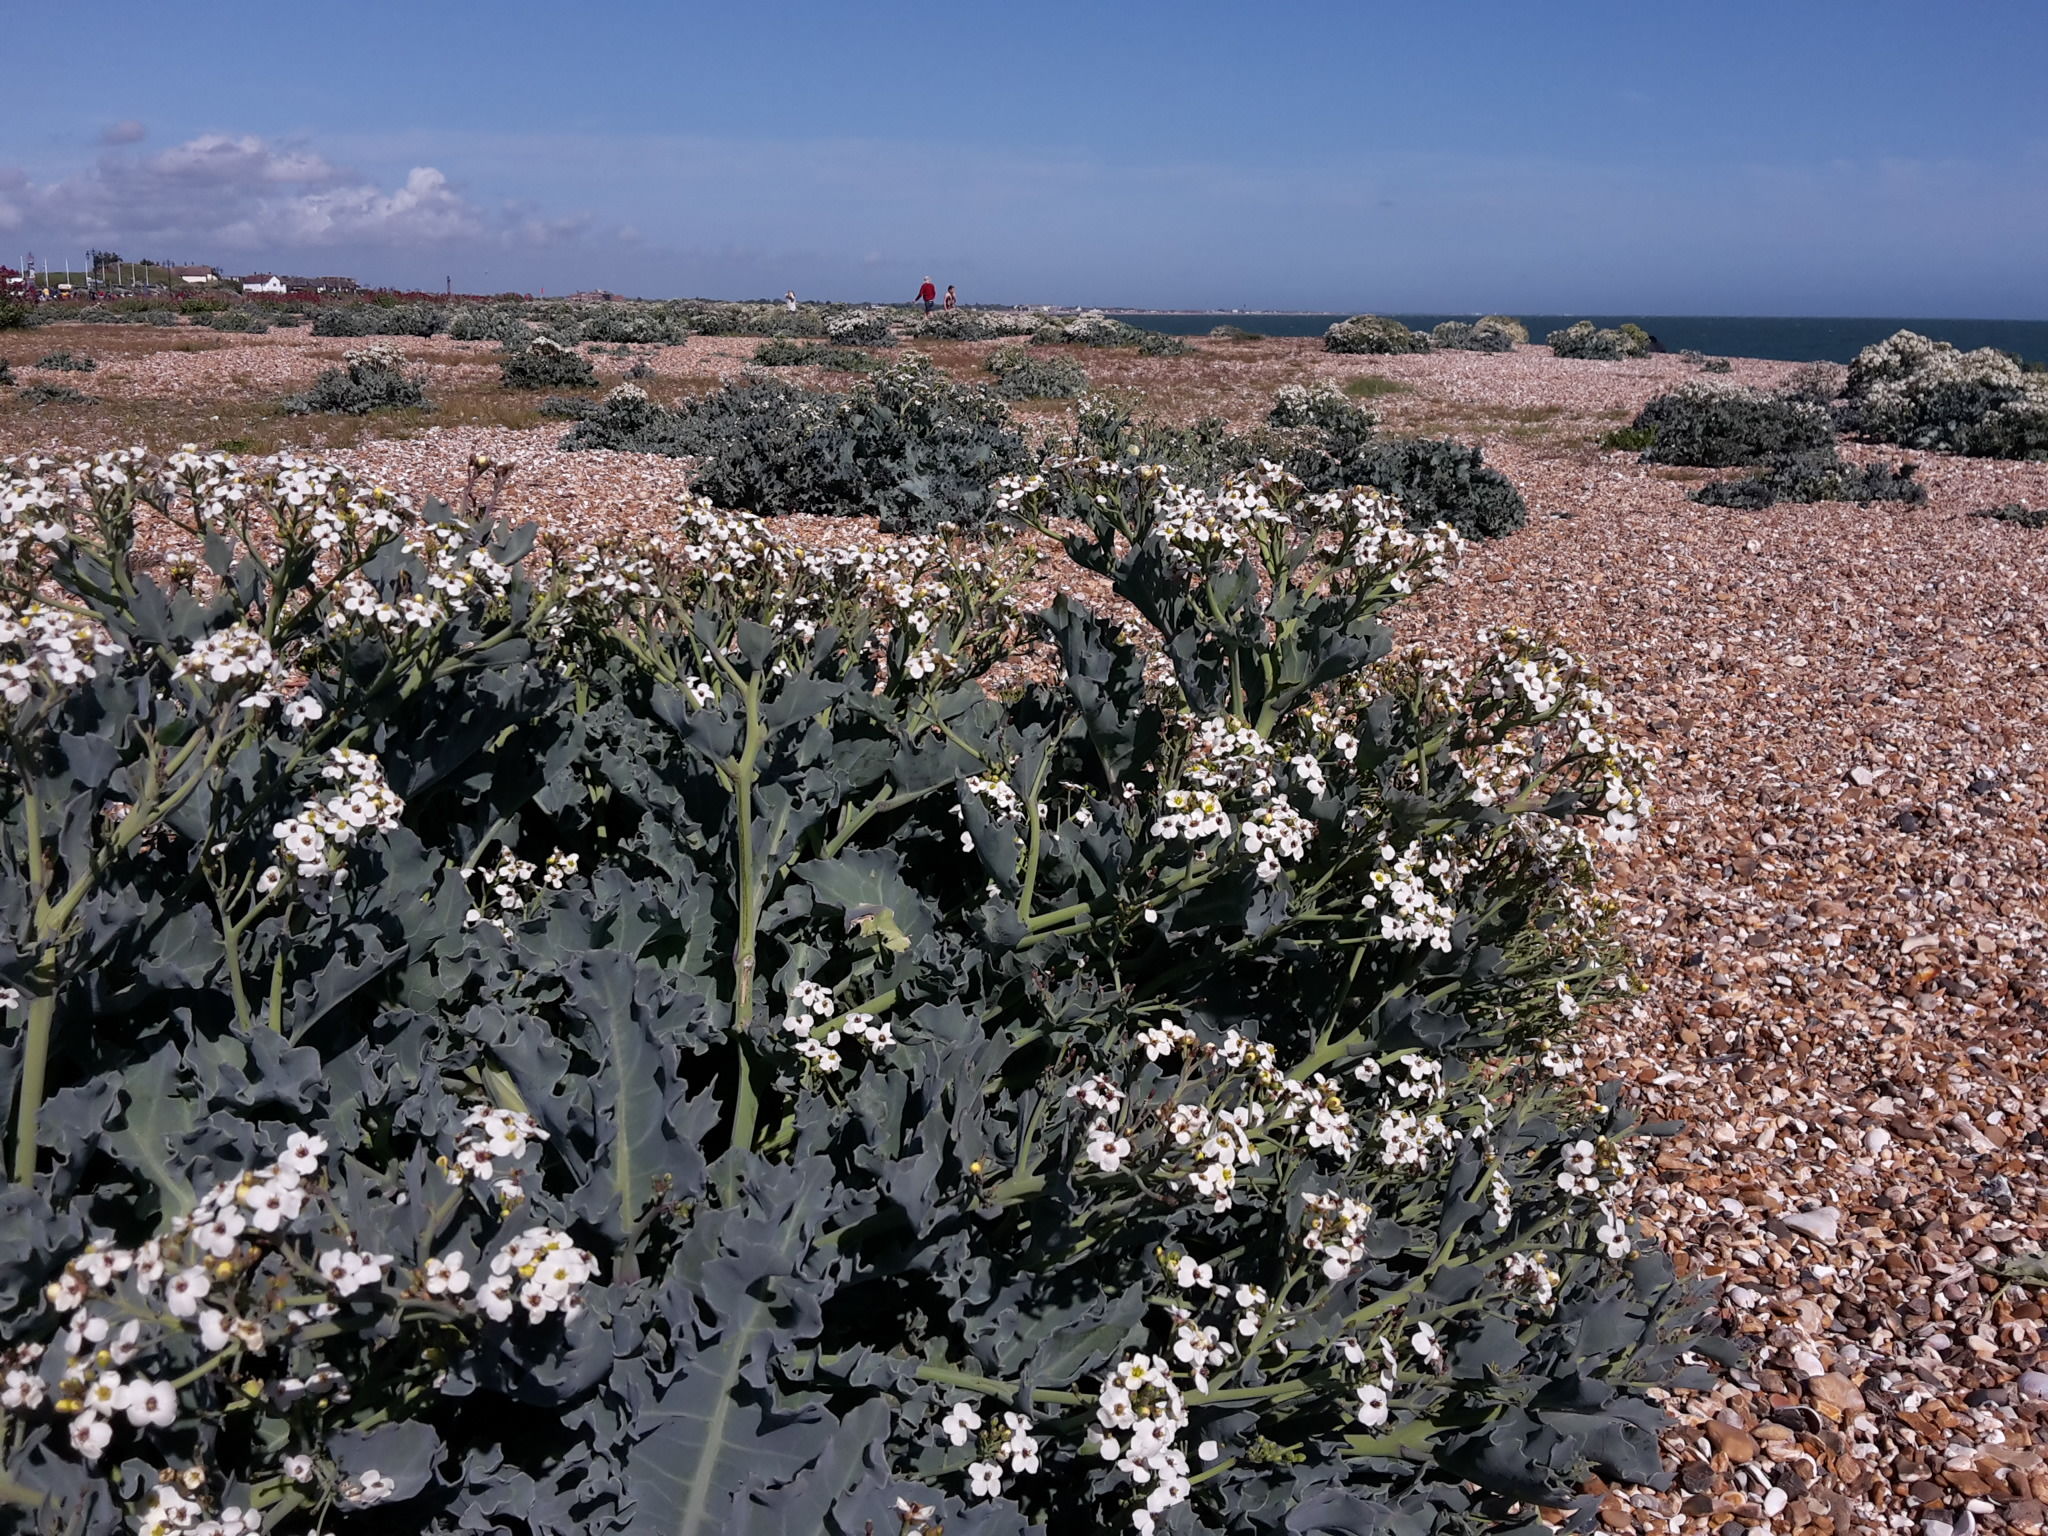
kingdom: Plantae
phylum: Tracheophyta
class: Magnoliopsida
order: Brassicales
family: Brassicaceae
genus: Crambe
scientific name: Crambe maritima
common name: Sea-kale
